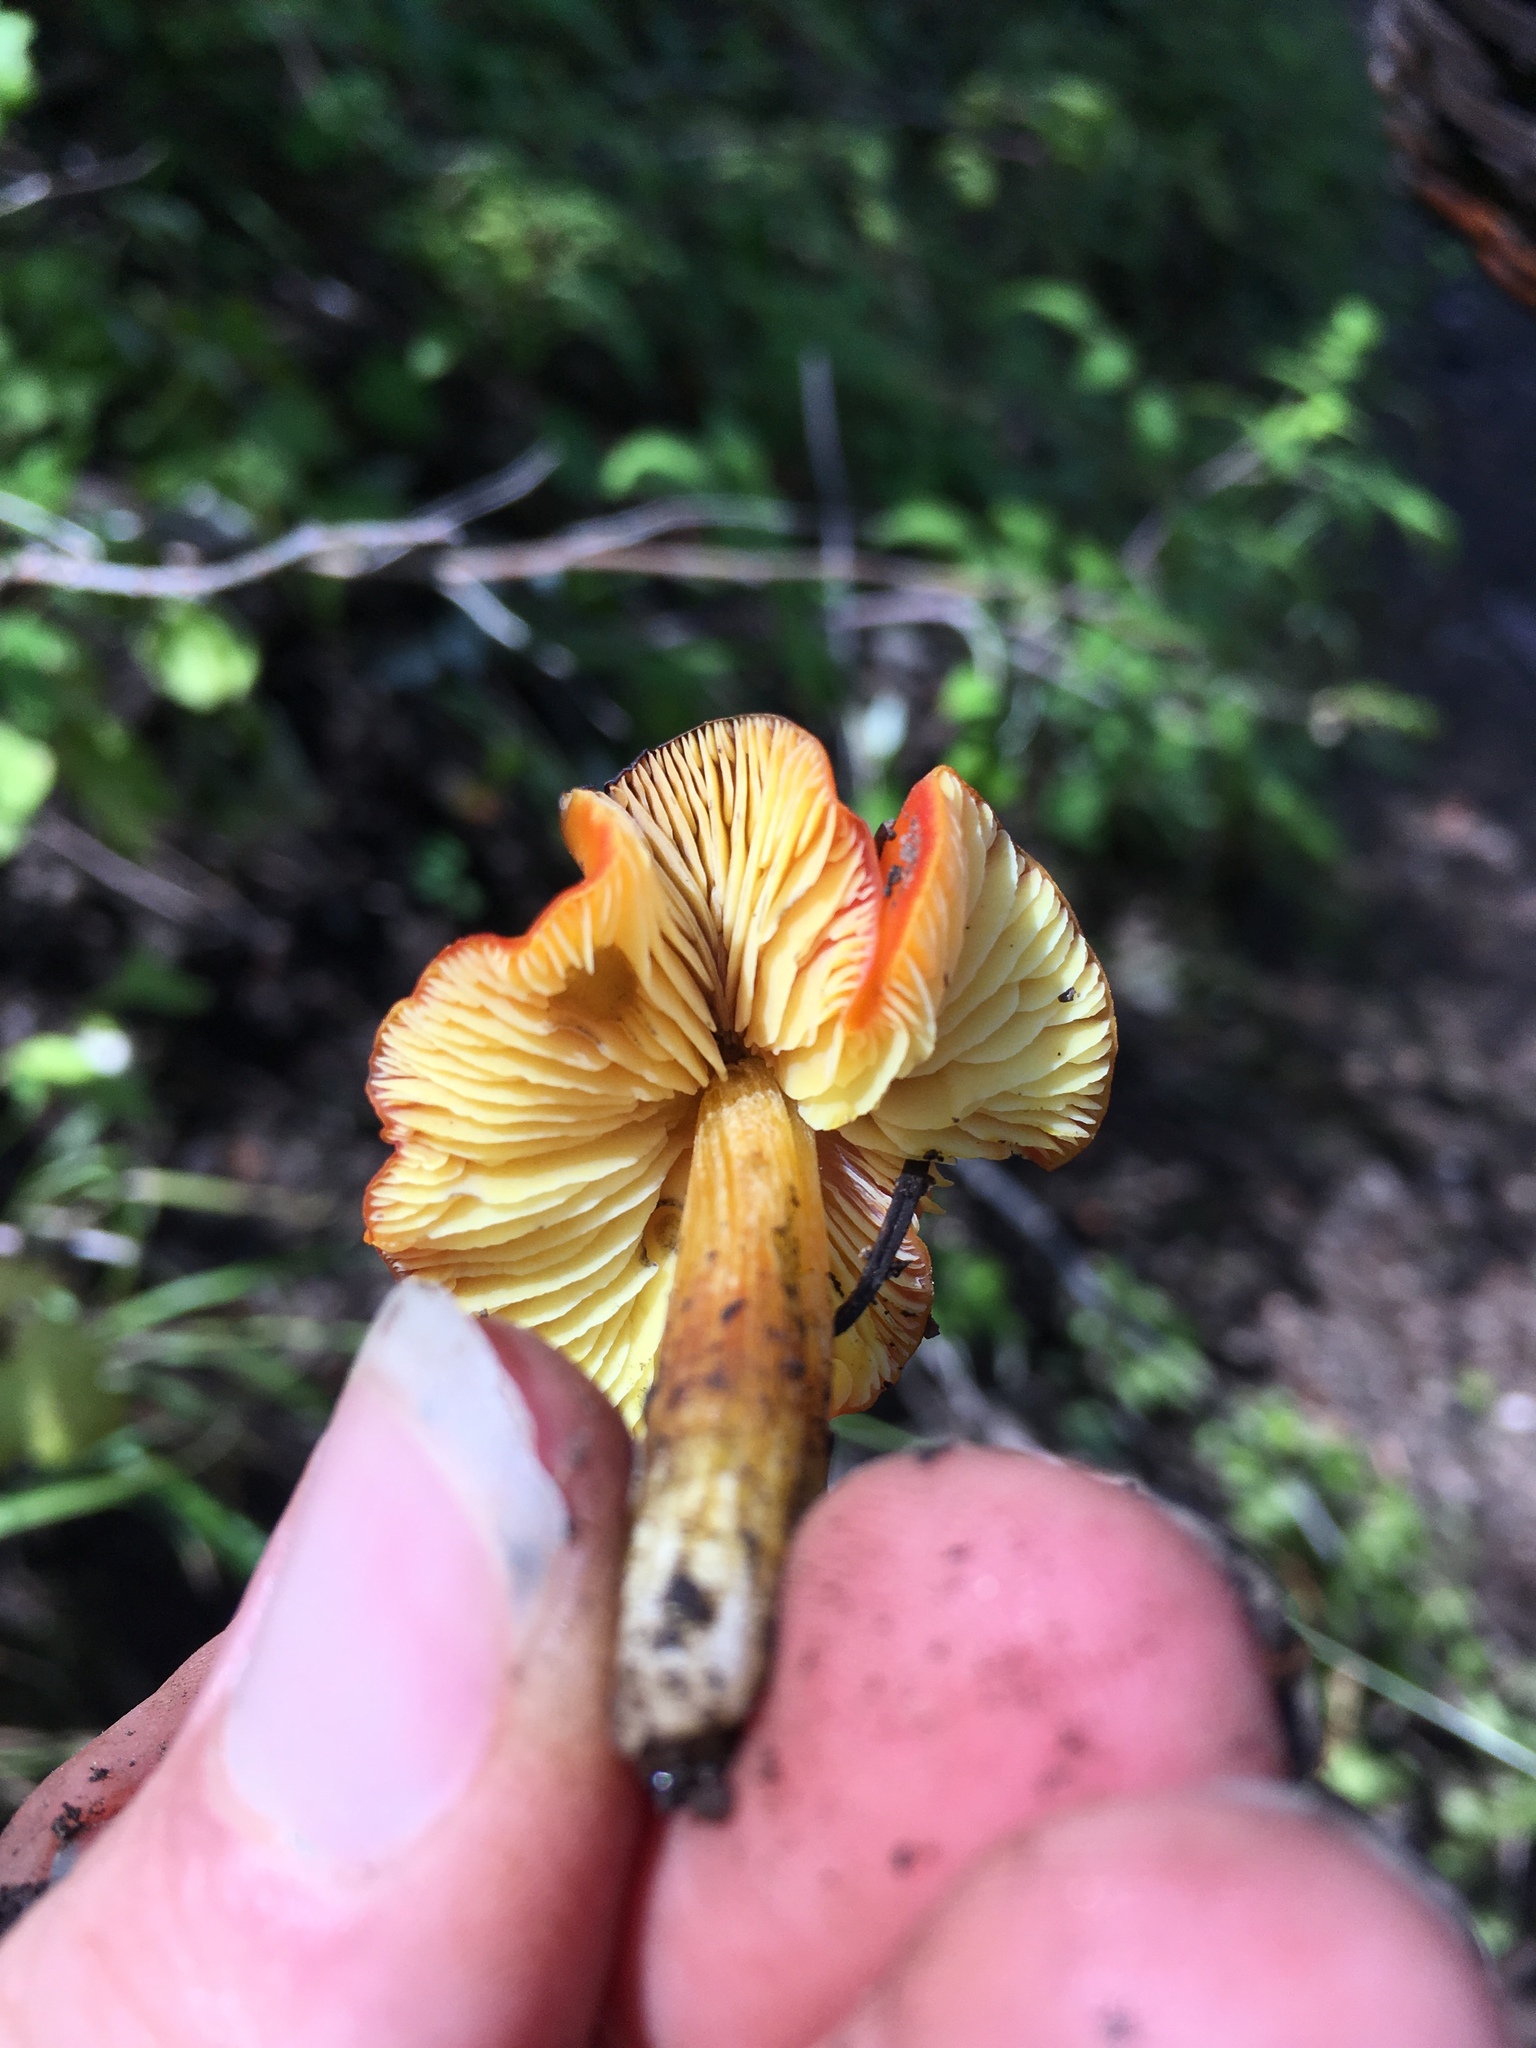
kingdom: Fungi
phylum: Basidiomycota
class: Agaricomycetes
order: Agaricales
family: Hygrophoraceae
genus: Hygrocybe
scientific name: Hygrocybe conica
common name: Blackening wax-cap
